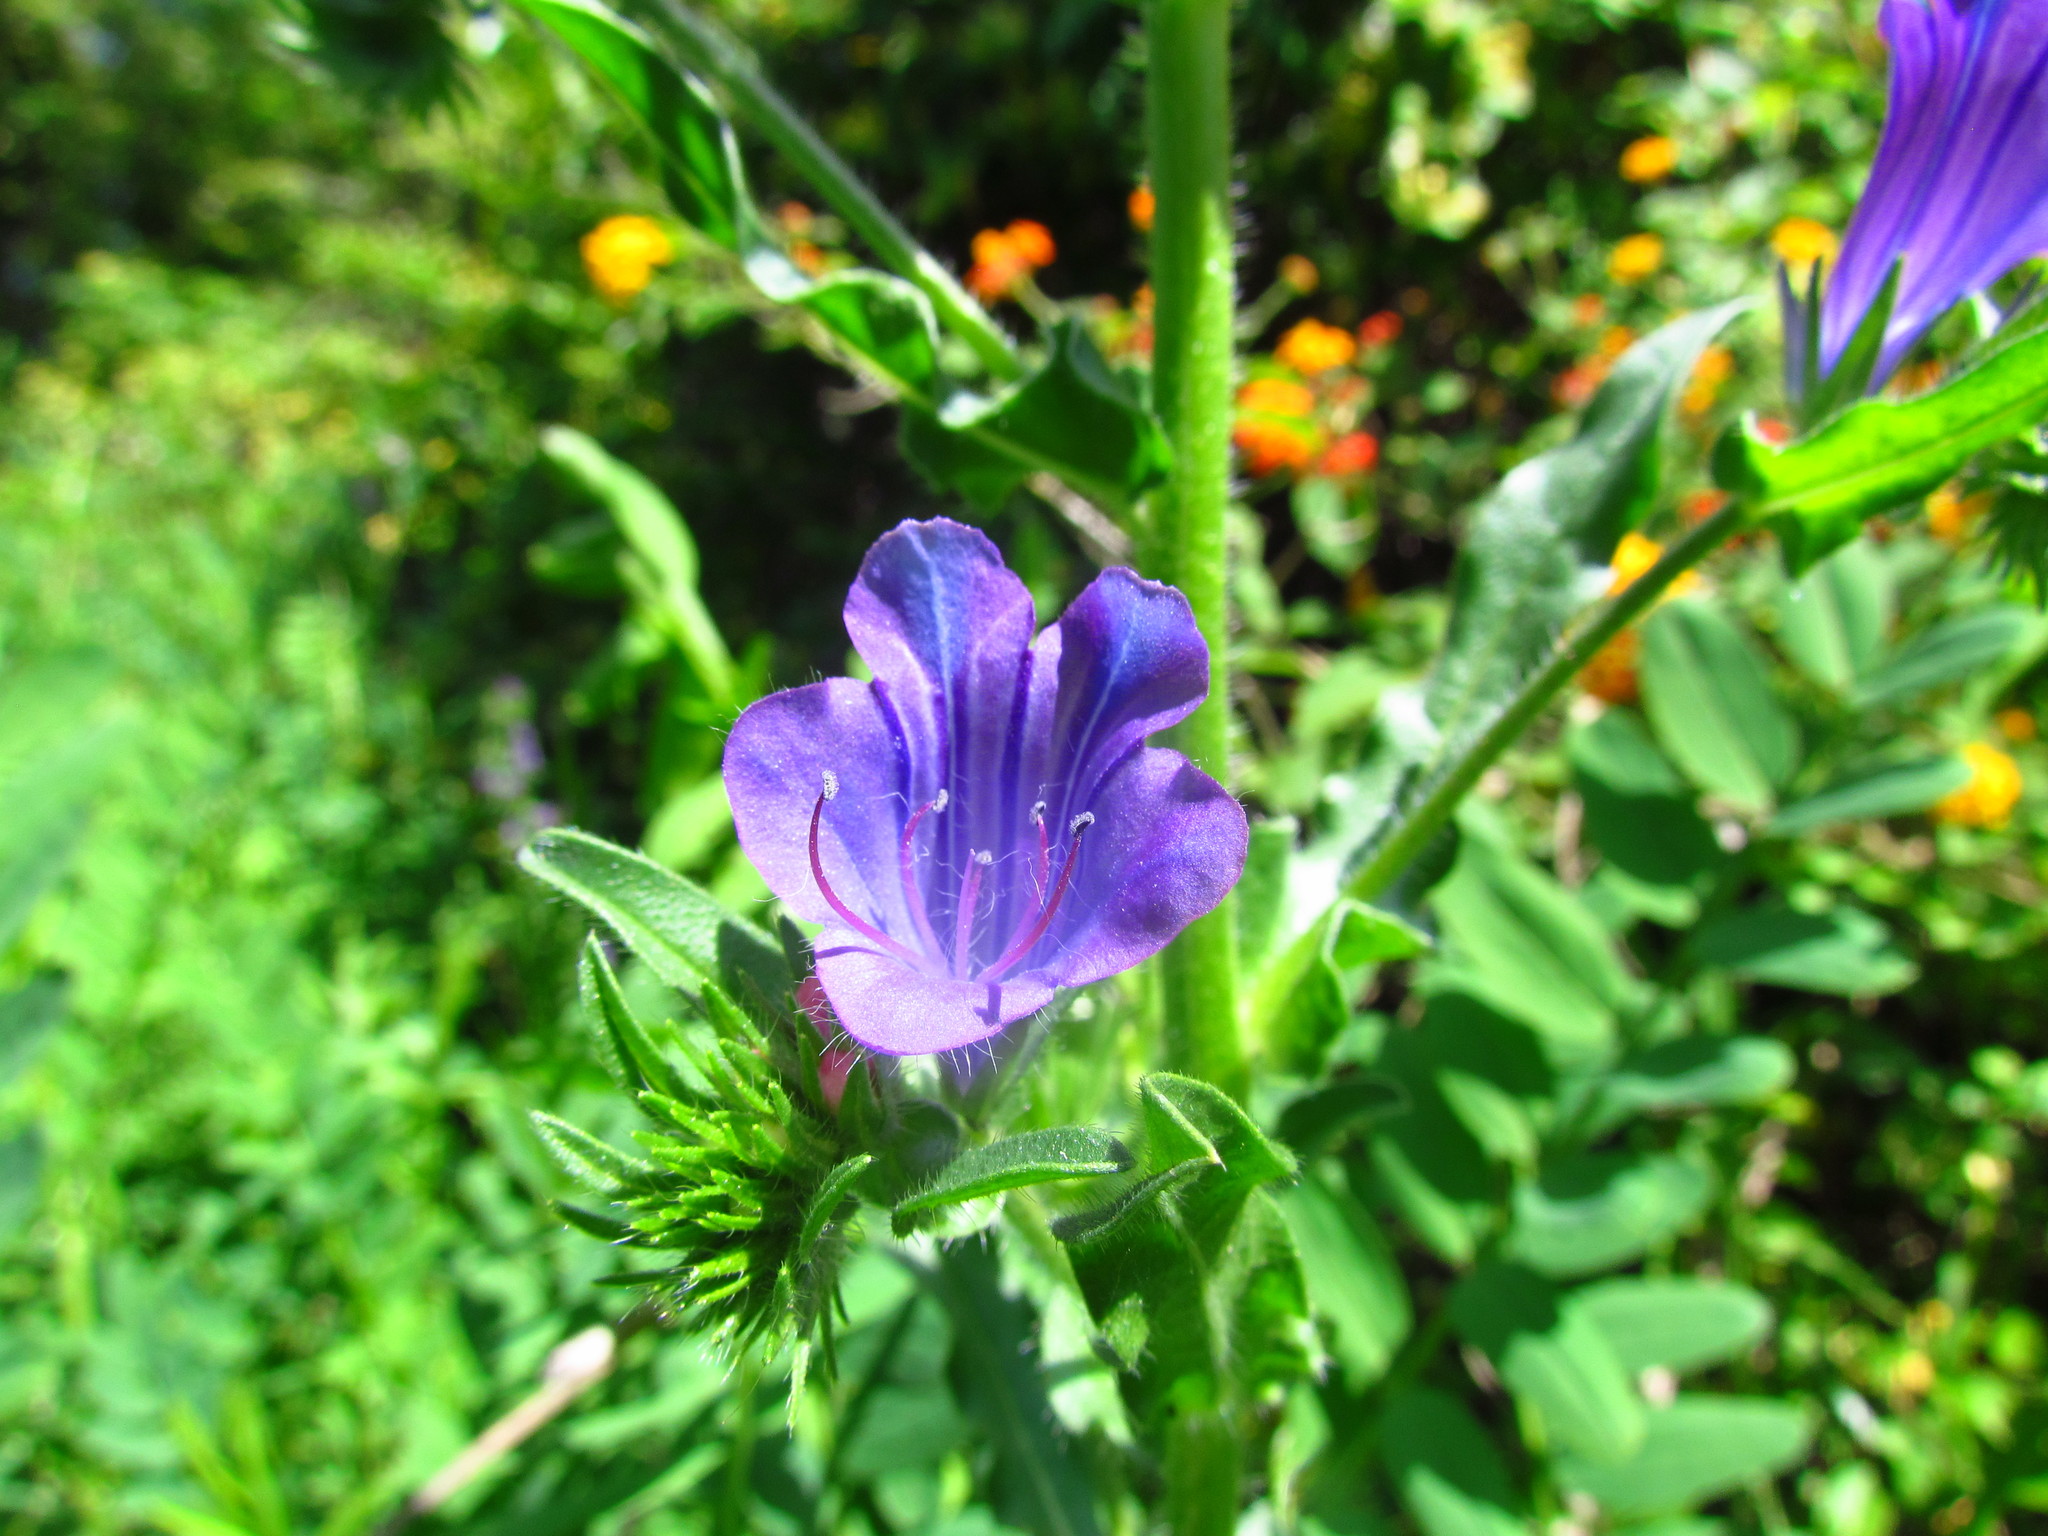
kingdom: Plantae
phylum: Tracheophyta
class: Magnoliopsida
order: Boraginales
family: Boraginaceae
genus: Echium
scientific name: Echium plantagineum
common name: Purple viper's-bugloss
